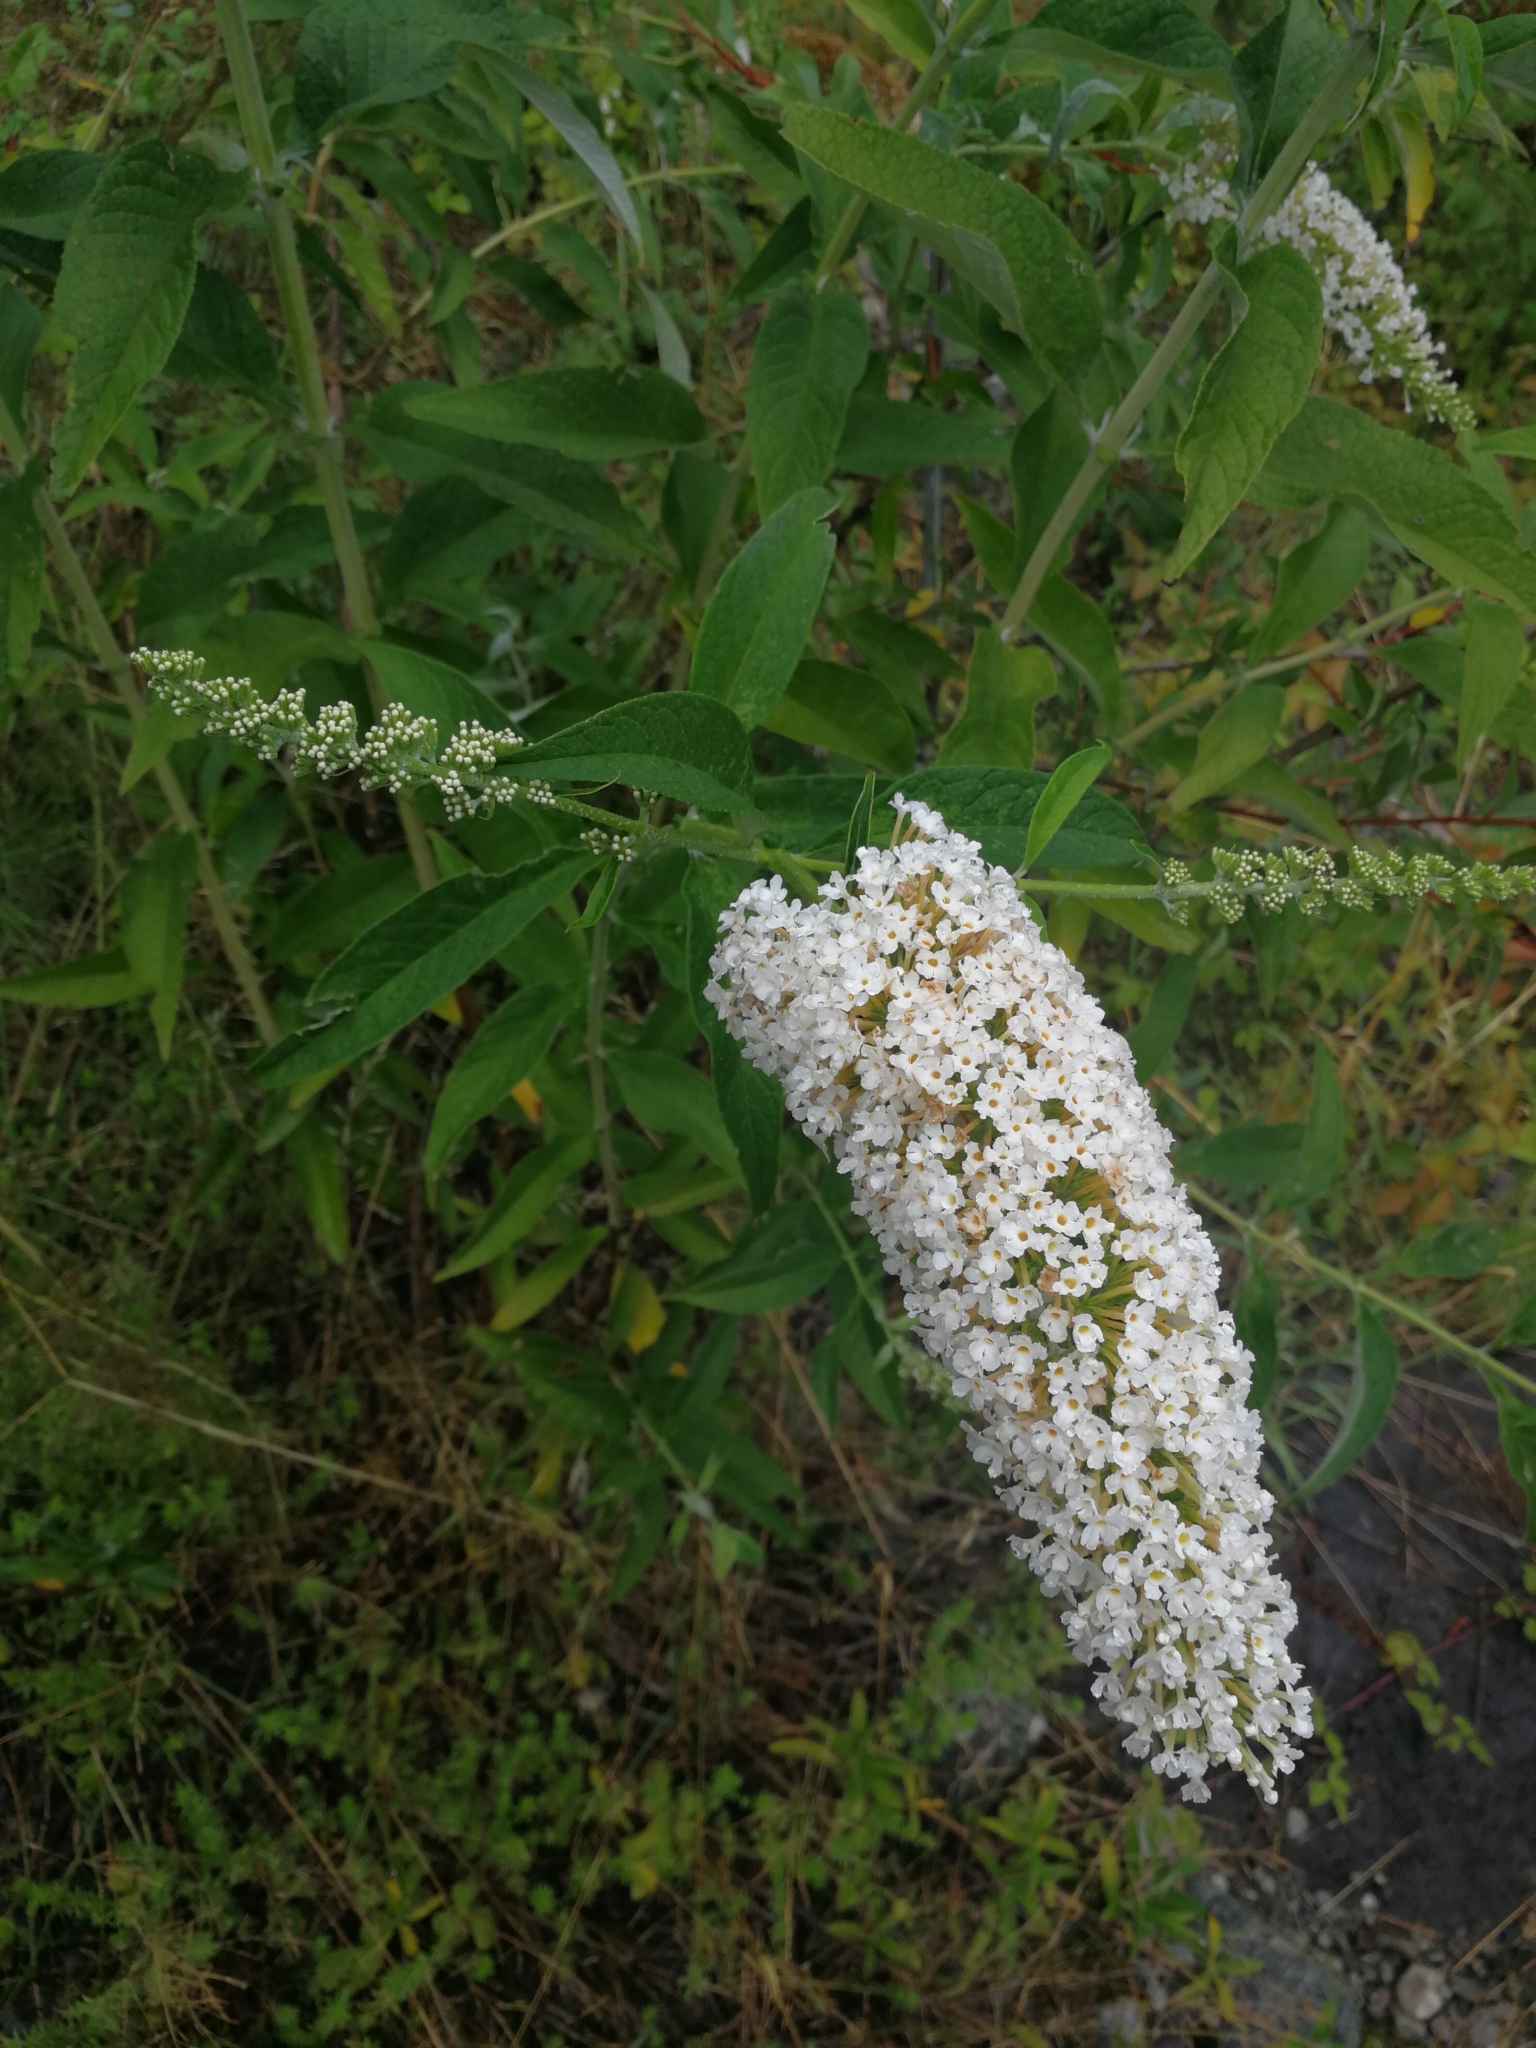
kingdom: Plantae
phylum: Tracheophyta
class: Magnoliopsida
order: Lamiales
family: Scrophulariaceae
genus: Buddleja
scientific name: Buddleja davidii
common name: Butterfly-bush
